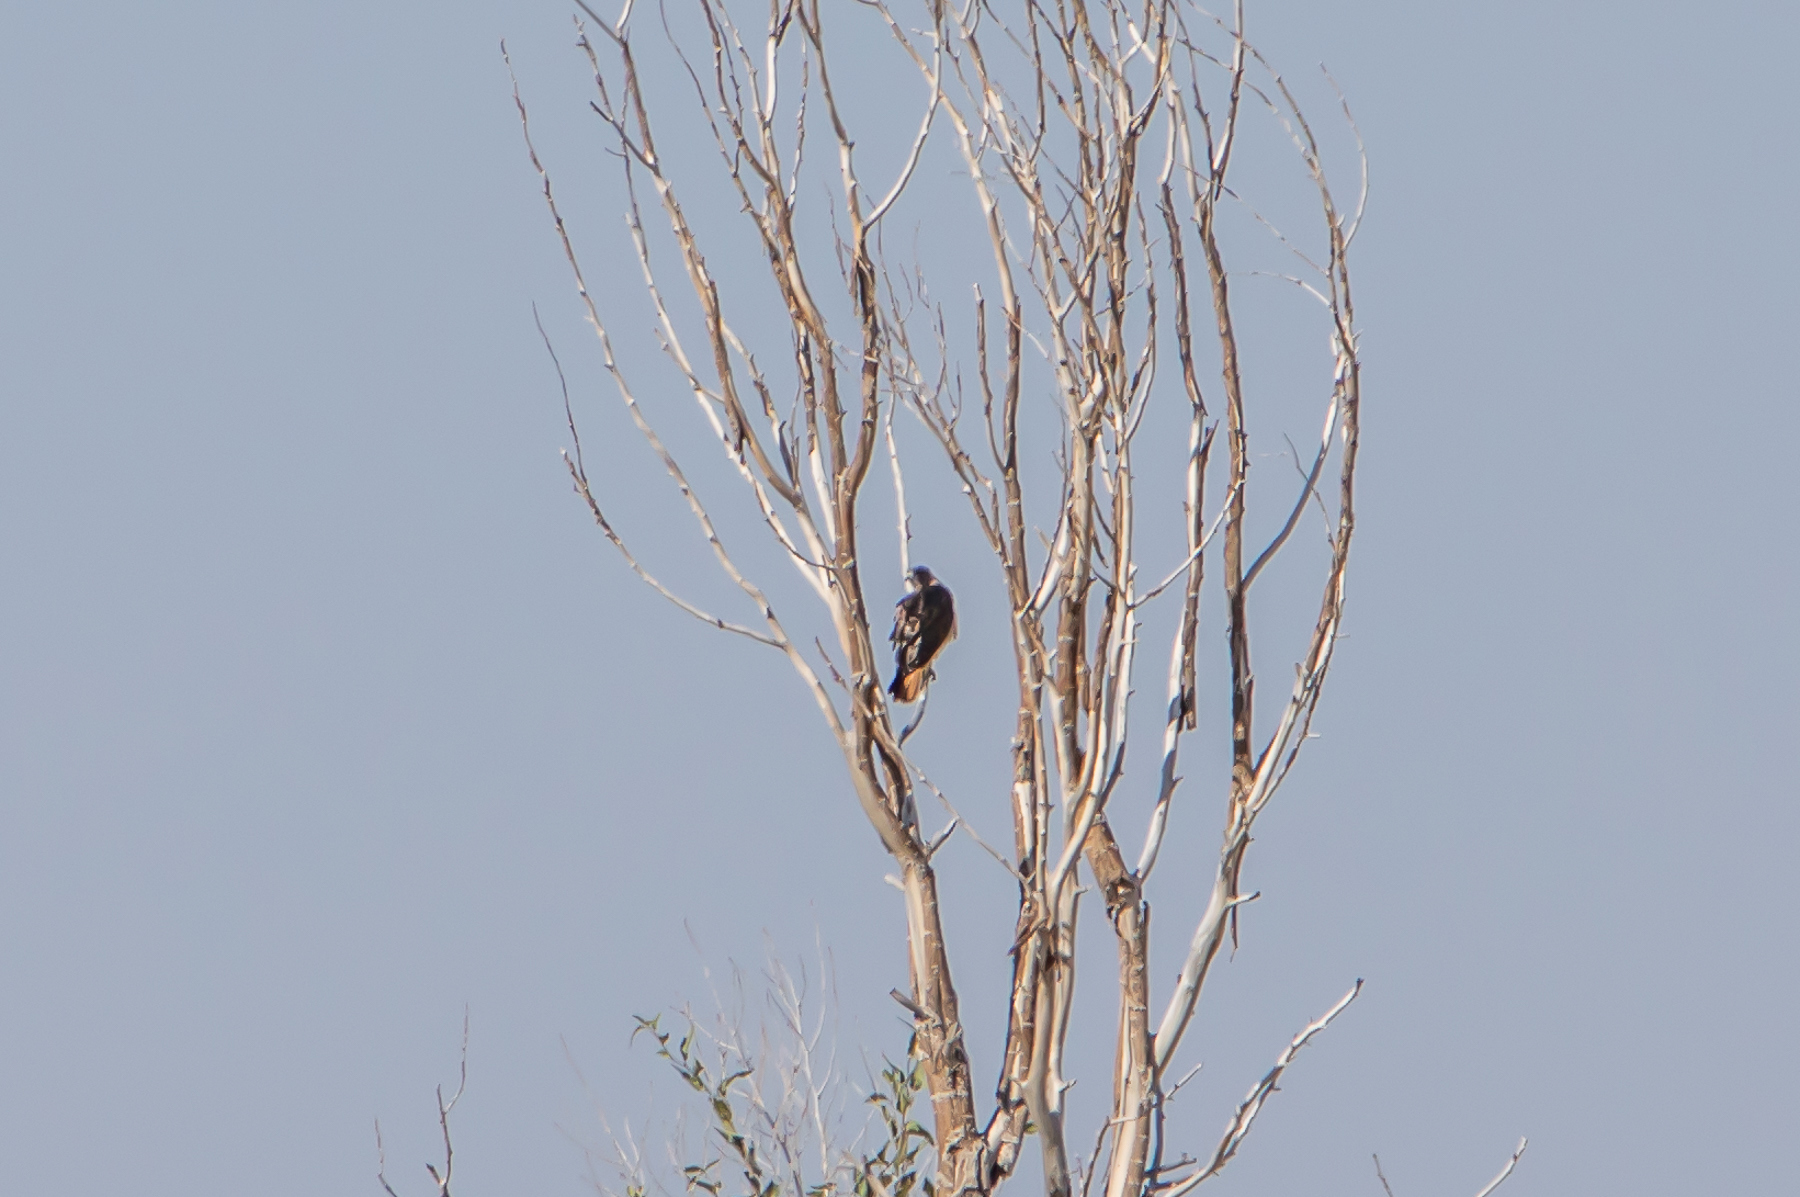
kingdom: Animalia
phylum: Chordata
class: Aves
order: Accipitriformes
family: Accipitridae
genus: Buteo
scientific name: Buteo jamaicensis
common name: Red-tailed hawk
